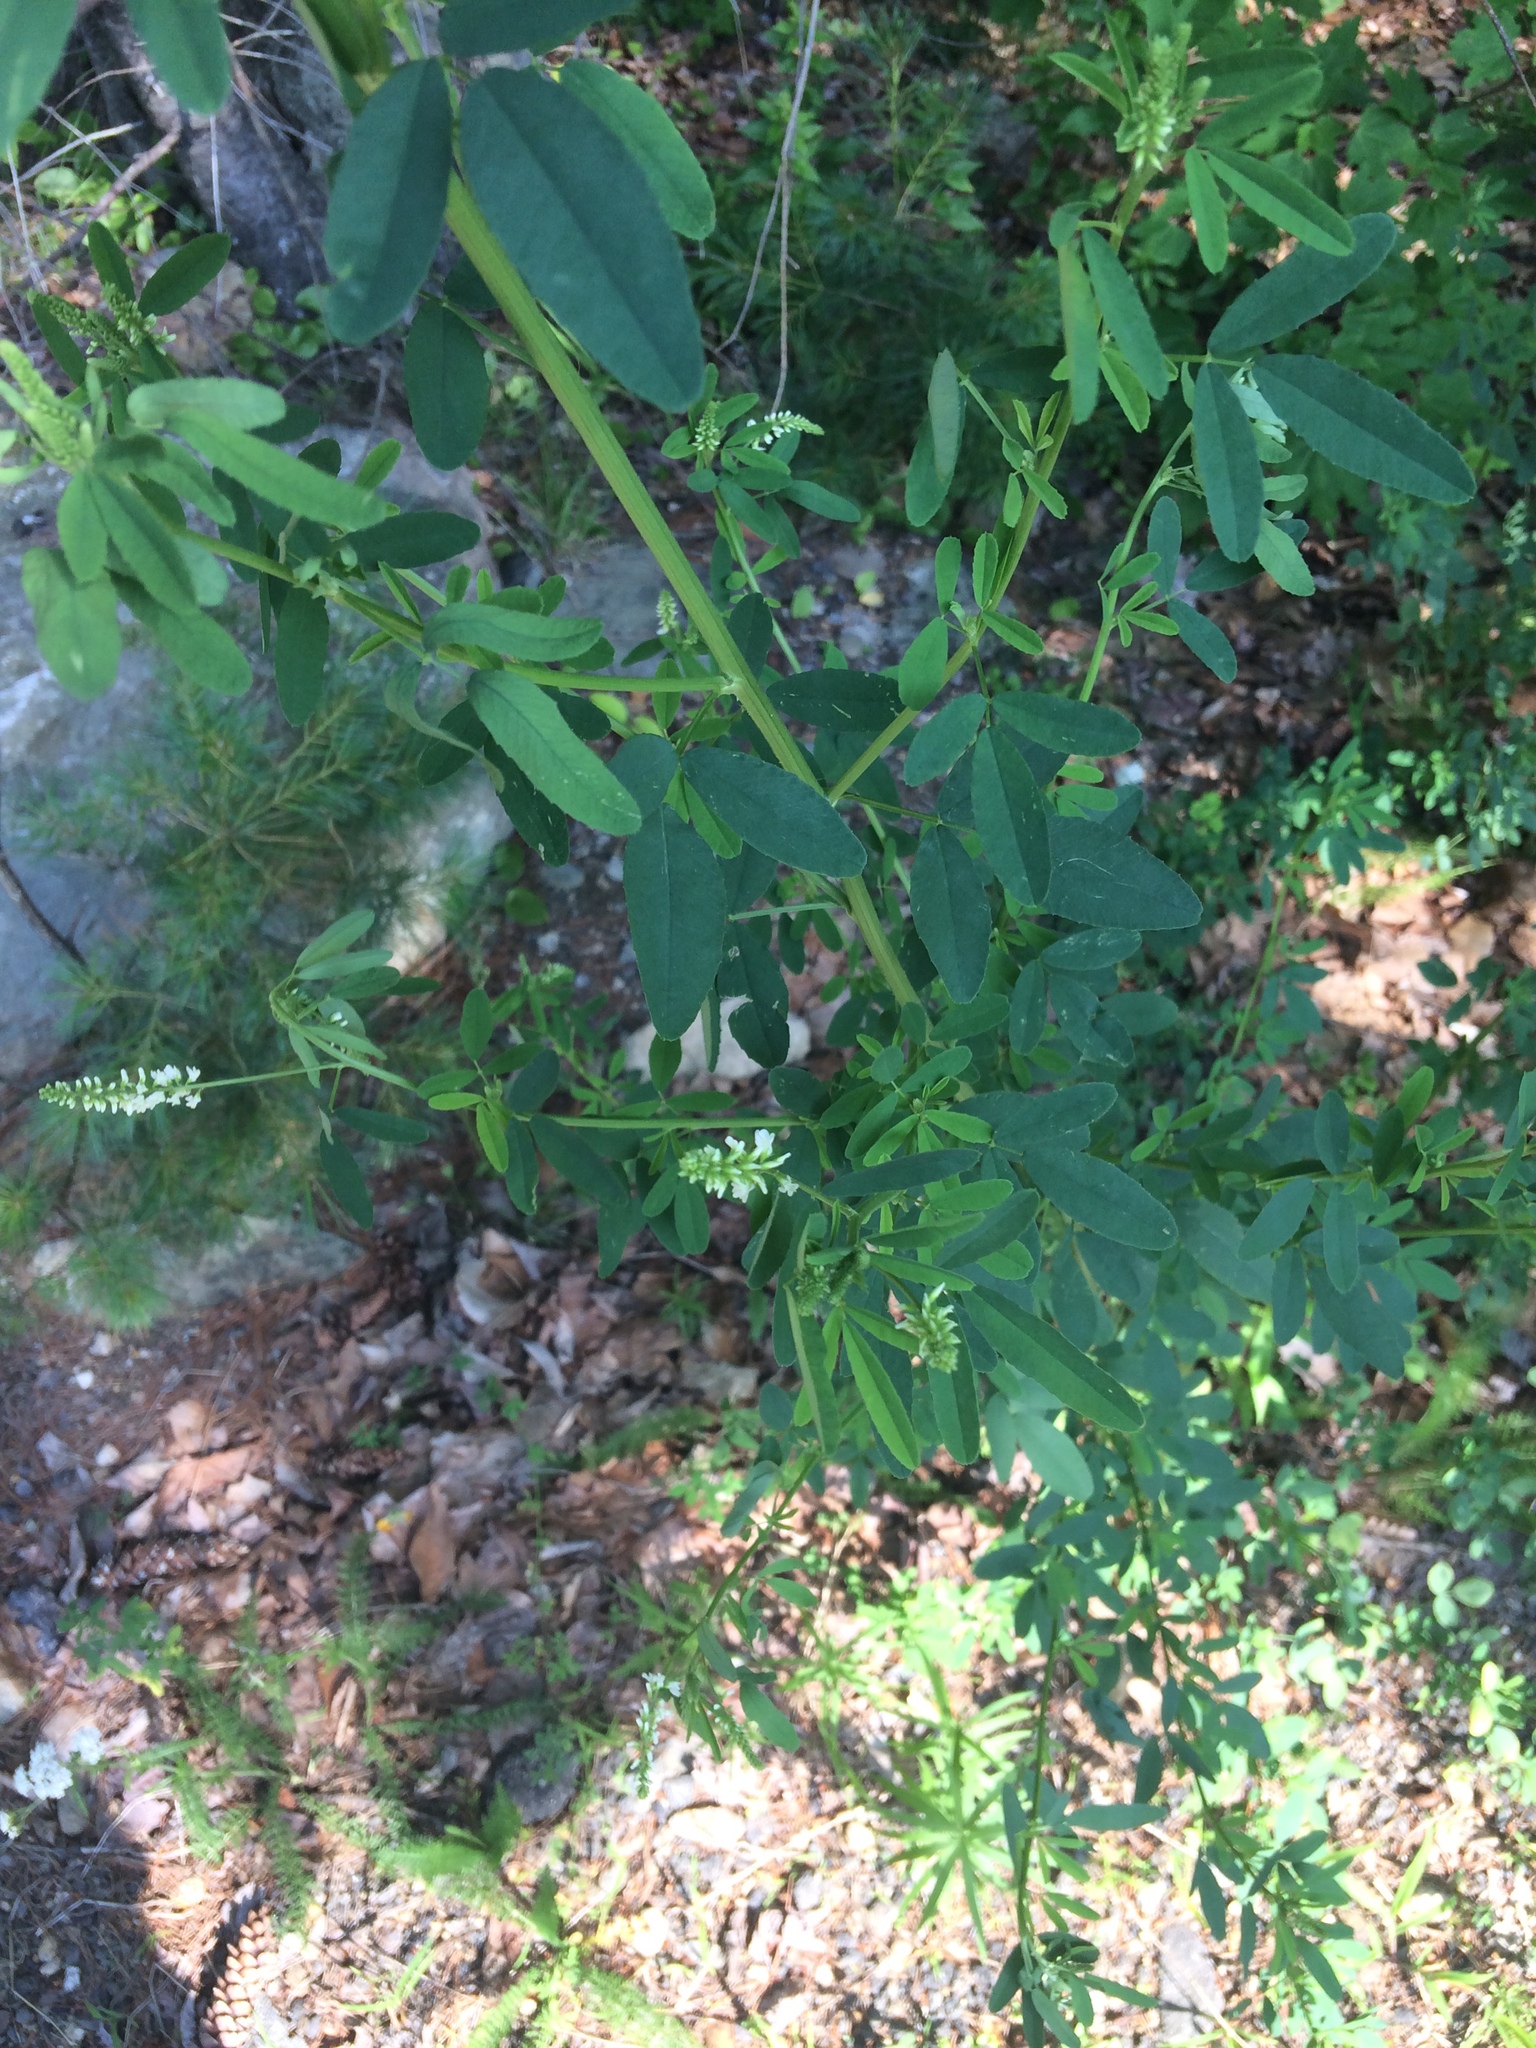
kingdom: Plantae
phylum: Tracheophyta
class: Magnoliopsida
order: Fabales
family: Fabaceae
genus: Melilotus
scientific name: Melilotus albus
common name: White melilot
